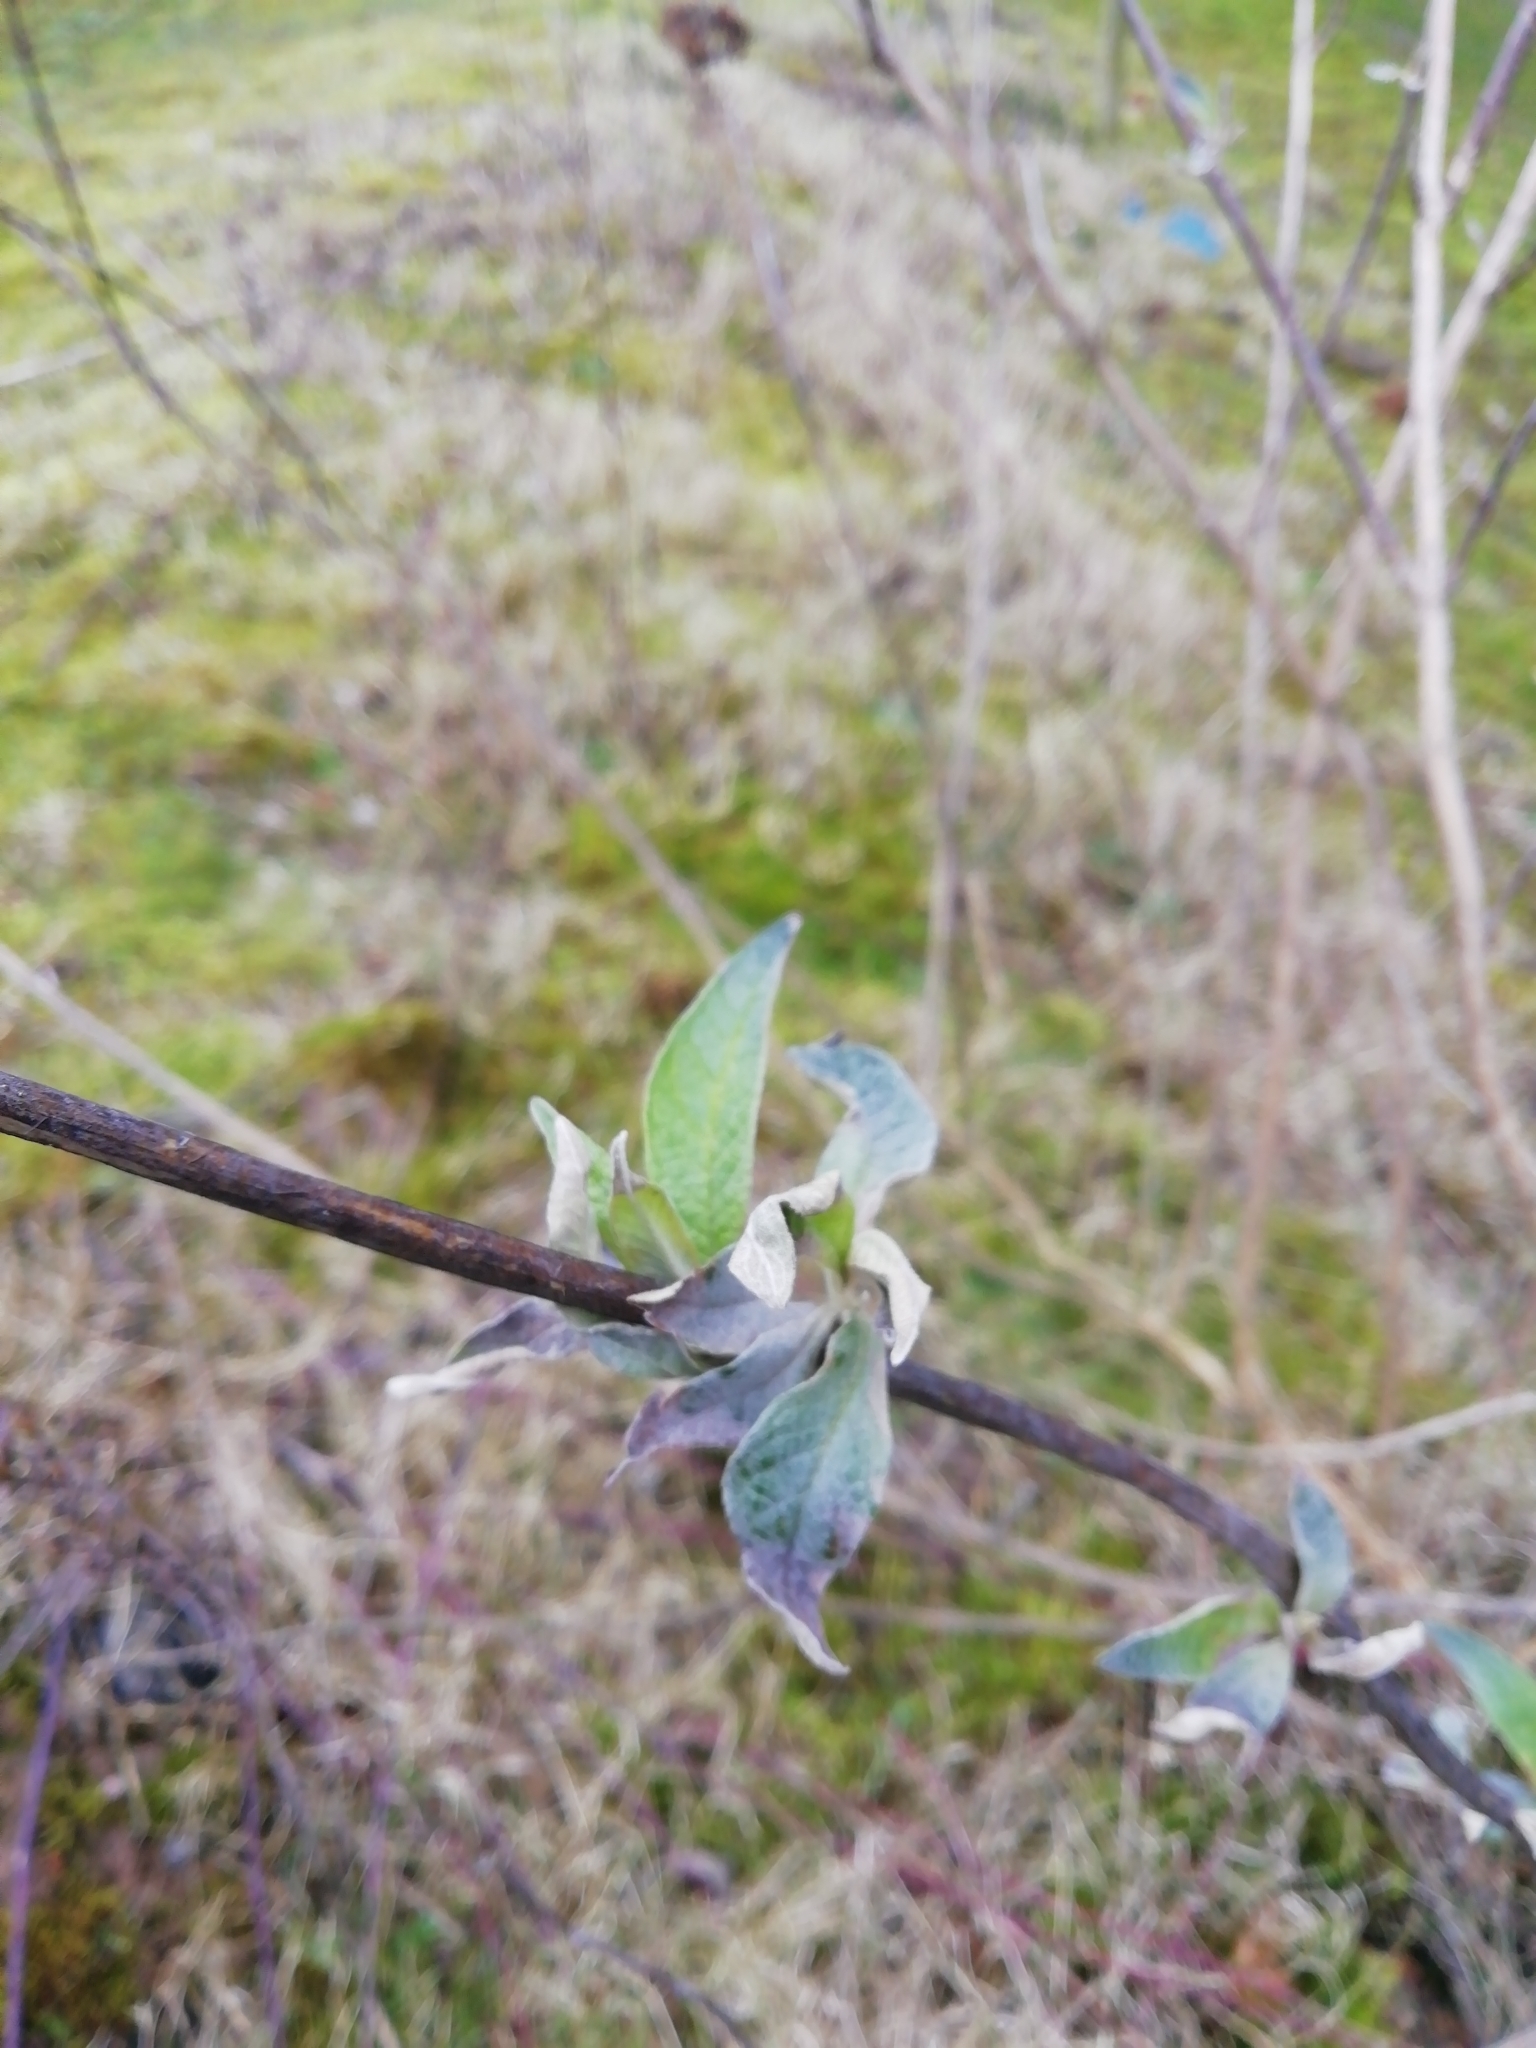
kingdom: Plantae
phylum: Tracheophyta
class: Magnoliopsida
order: Lamiales
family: Scrophulariaceae
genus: Buddleja
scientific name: Buddleja davidii
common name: Butterfly-bush
